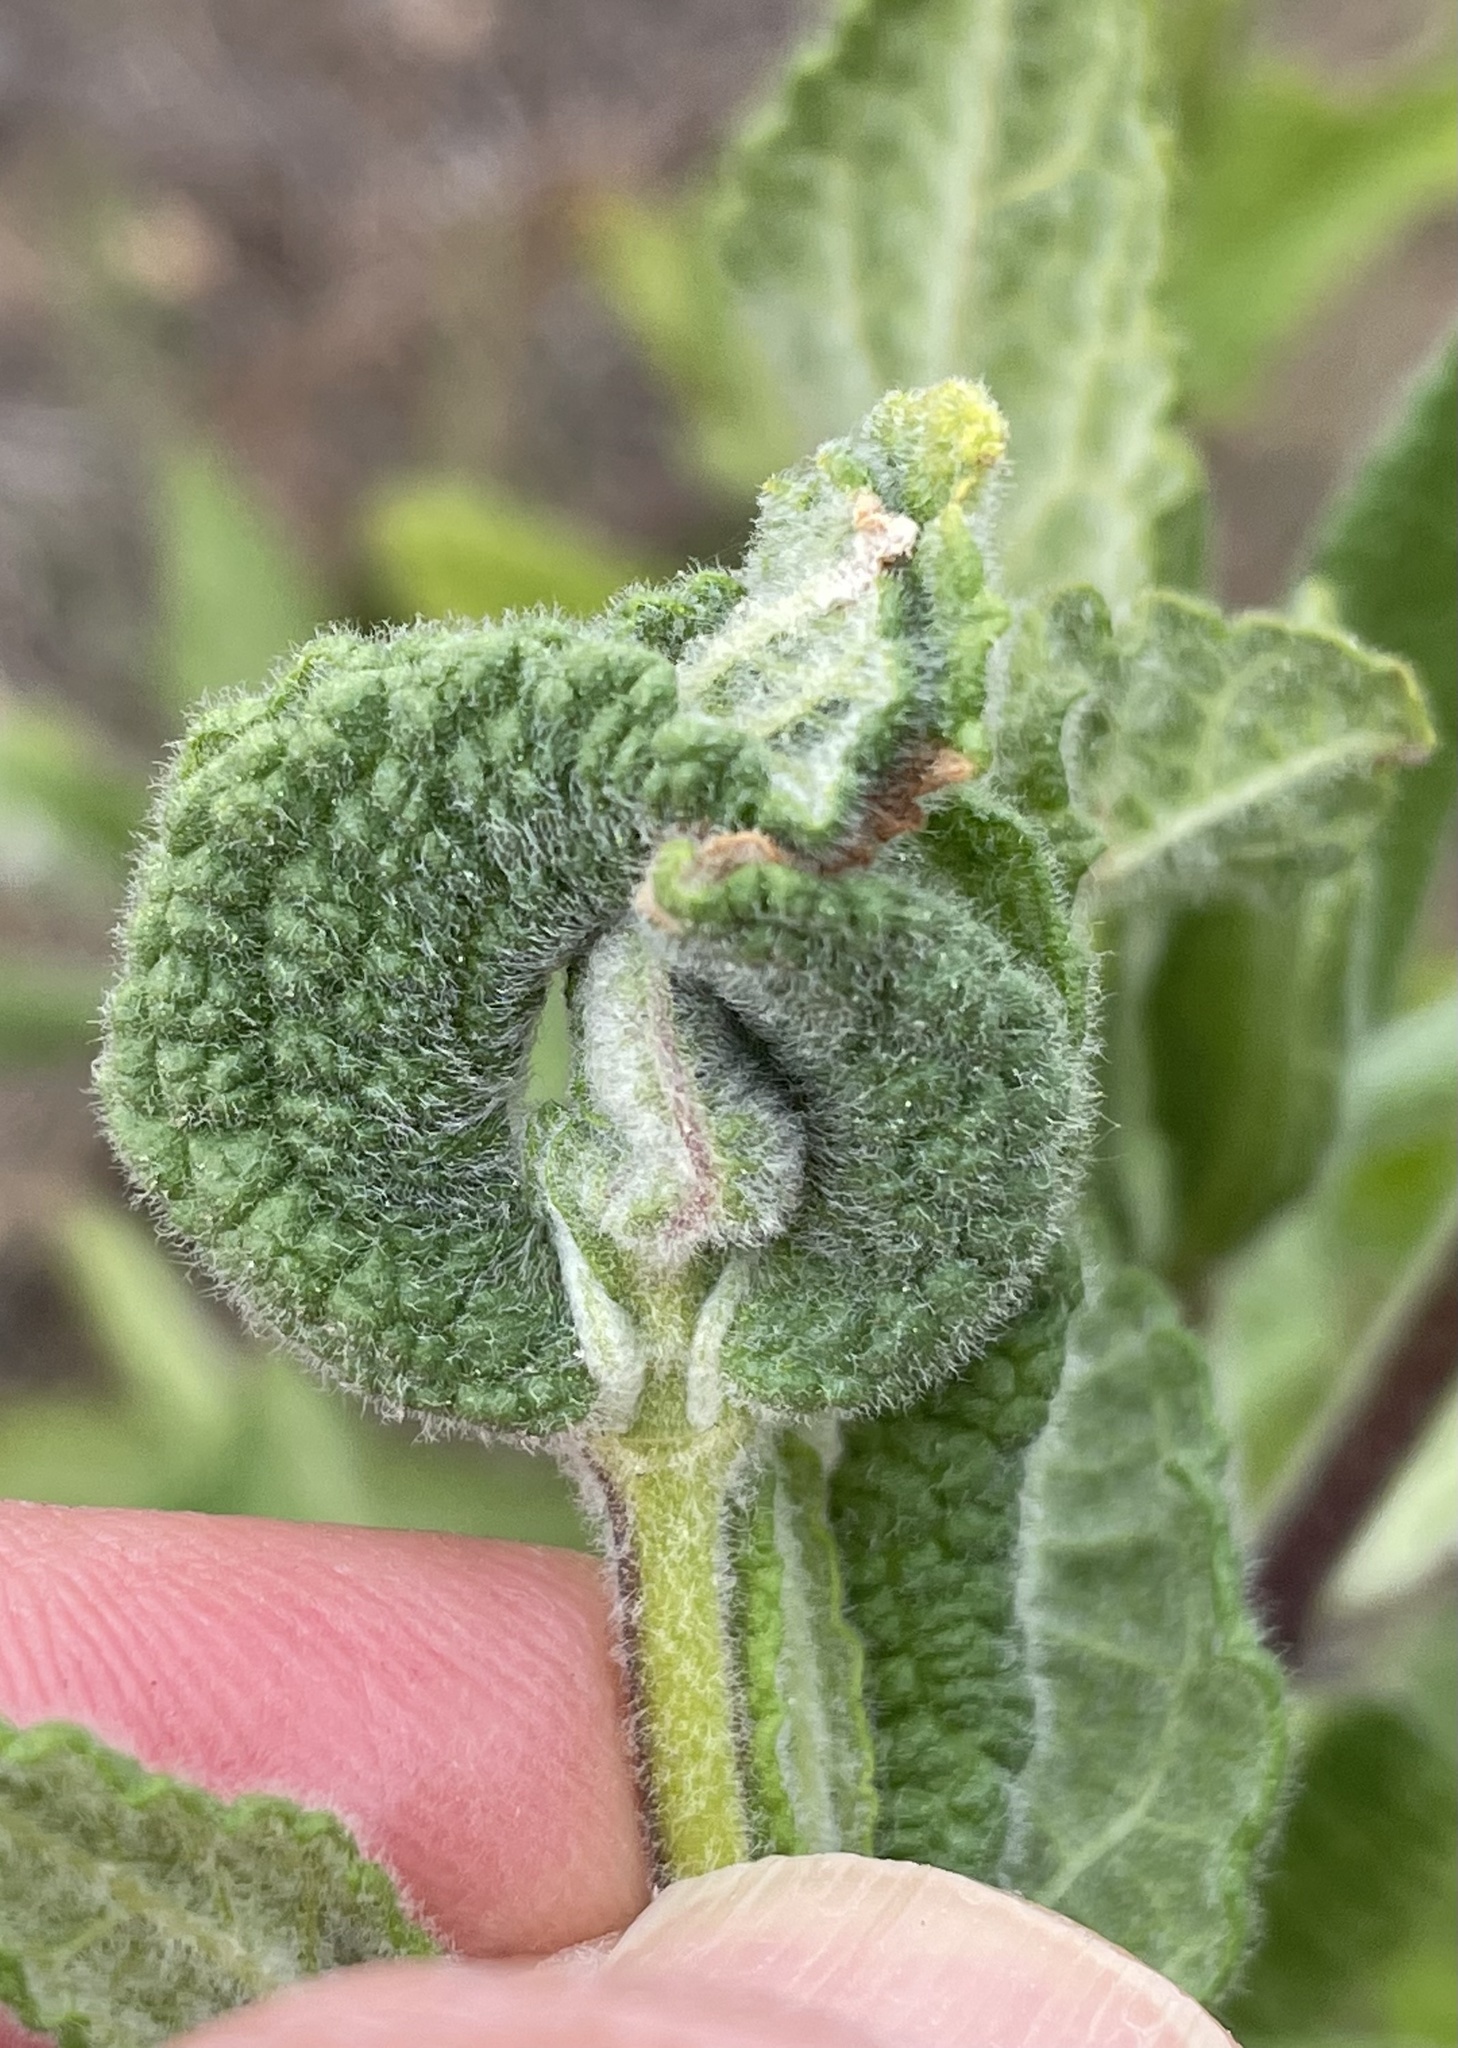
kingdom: Plantae
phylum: Tracheophyta
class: Magnoliopsida
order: Lamiales
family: Lamiaceae
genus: Lepechinia
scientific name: Lepechinia calycina
